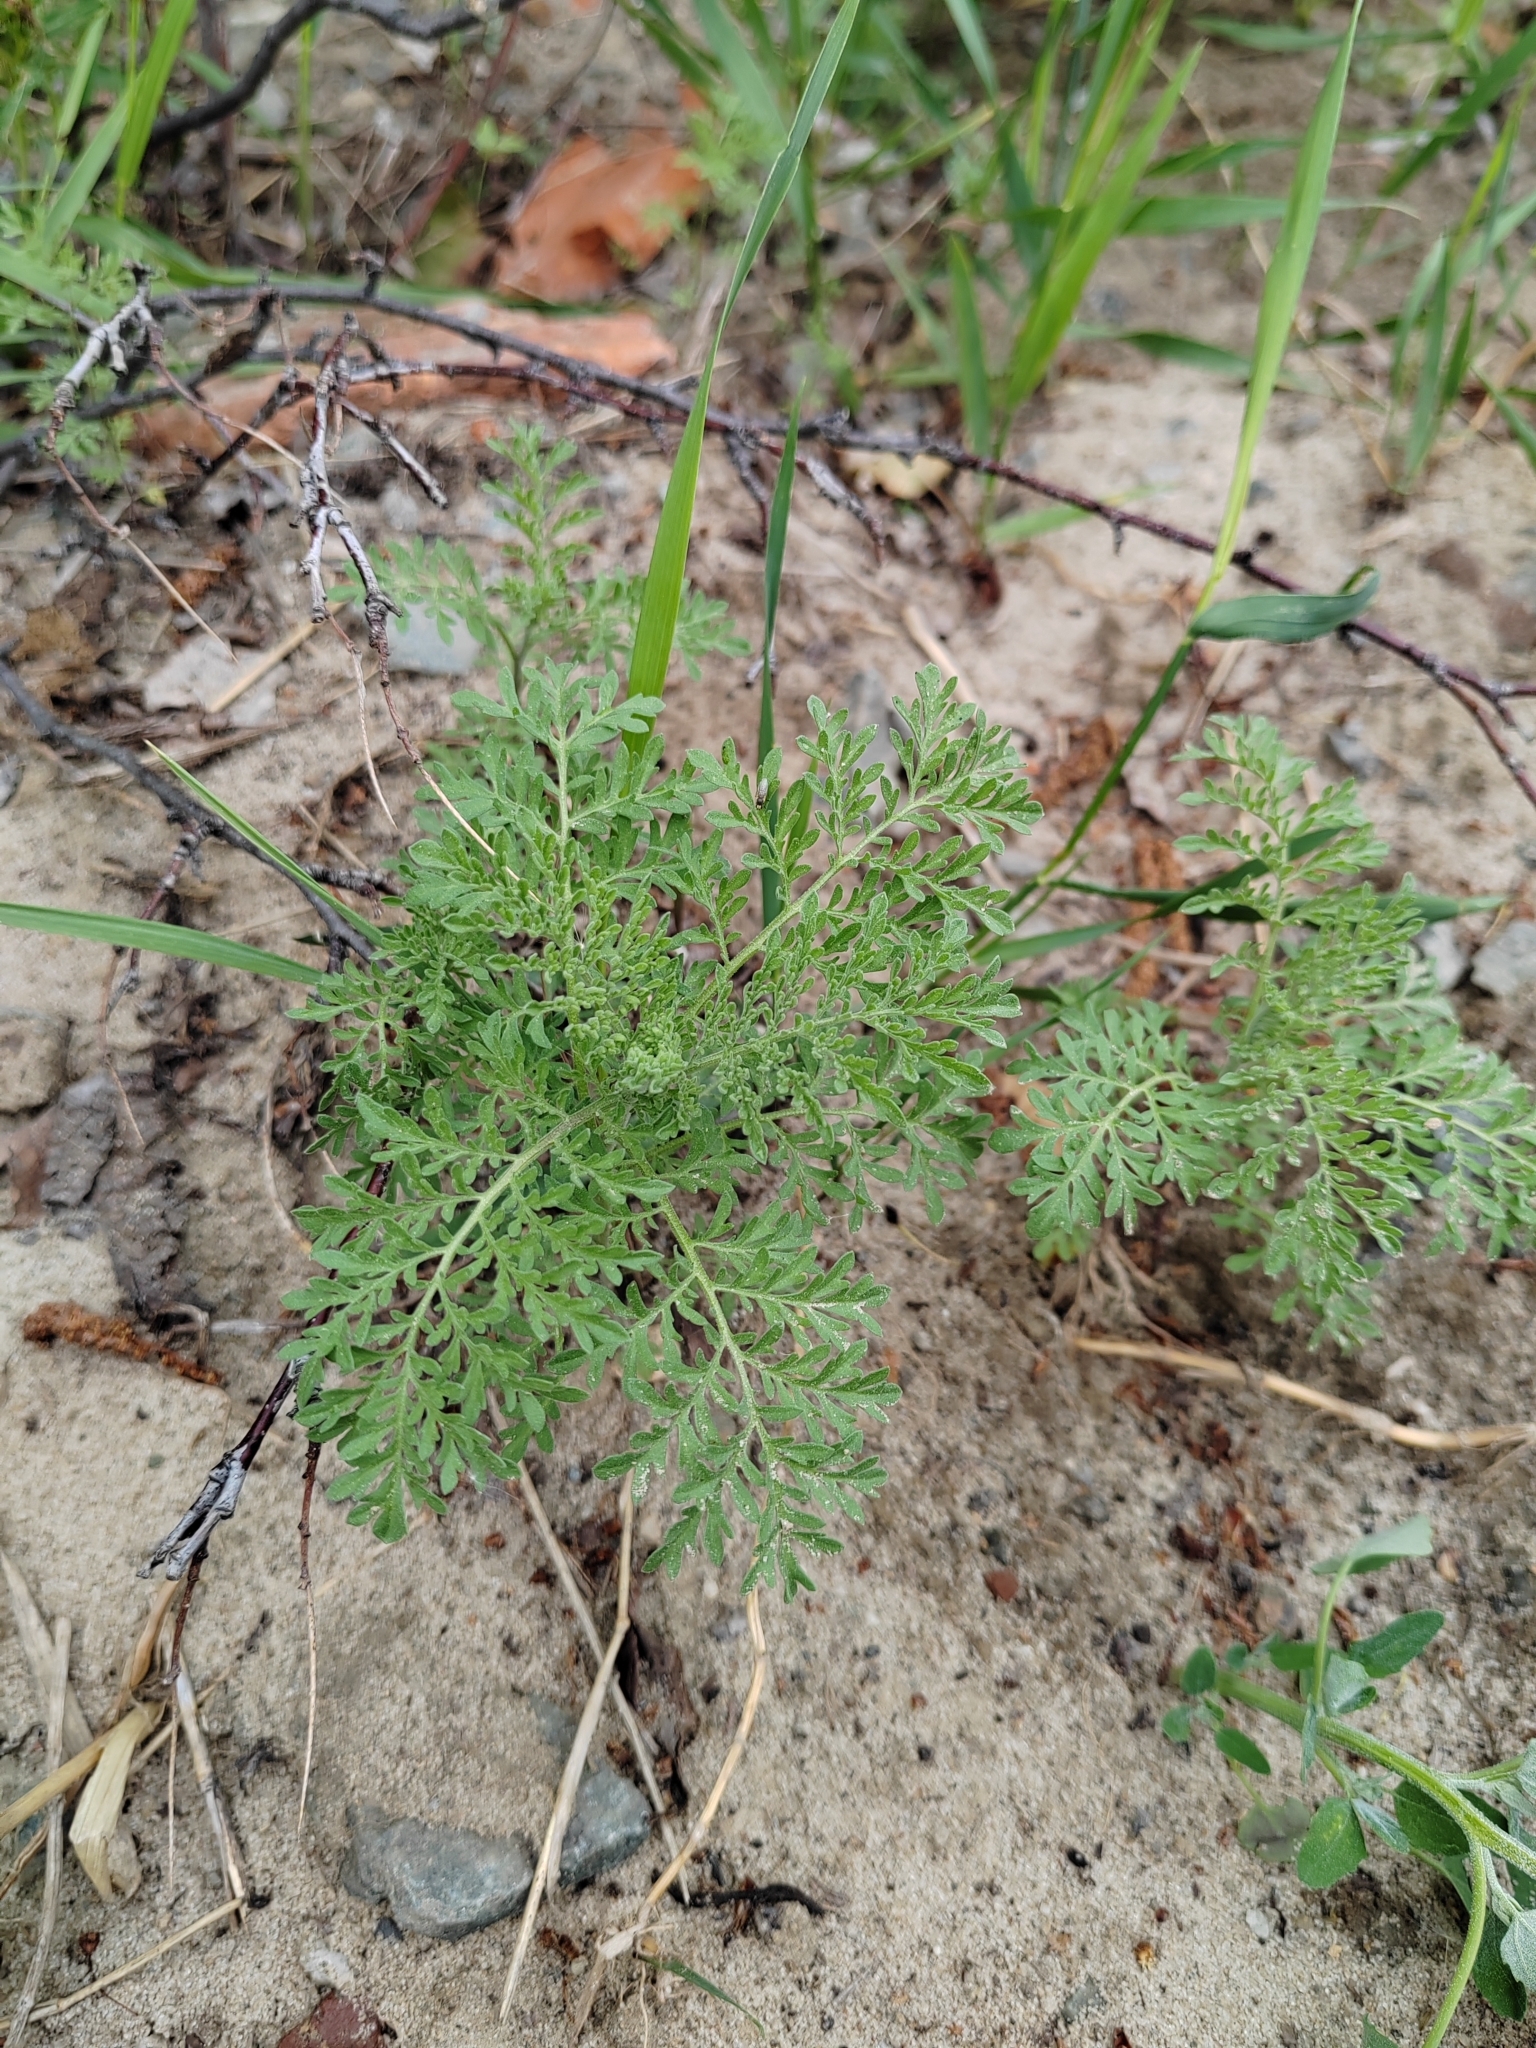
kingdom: Plantae
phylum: Tracheophyta
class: Magnoliopsida
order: Brassicales
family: Brassicaceae
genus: Descurainia
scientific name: Descurainia sophia
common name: Flixweed
